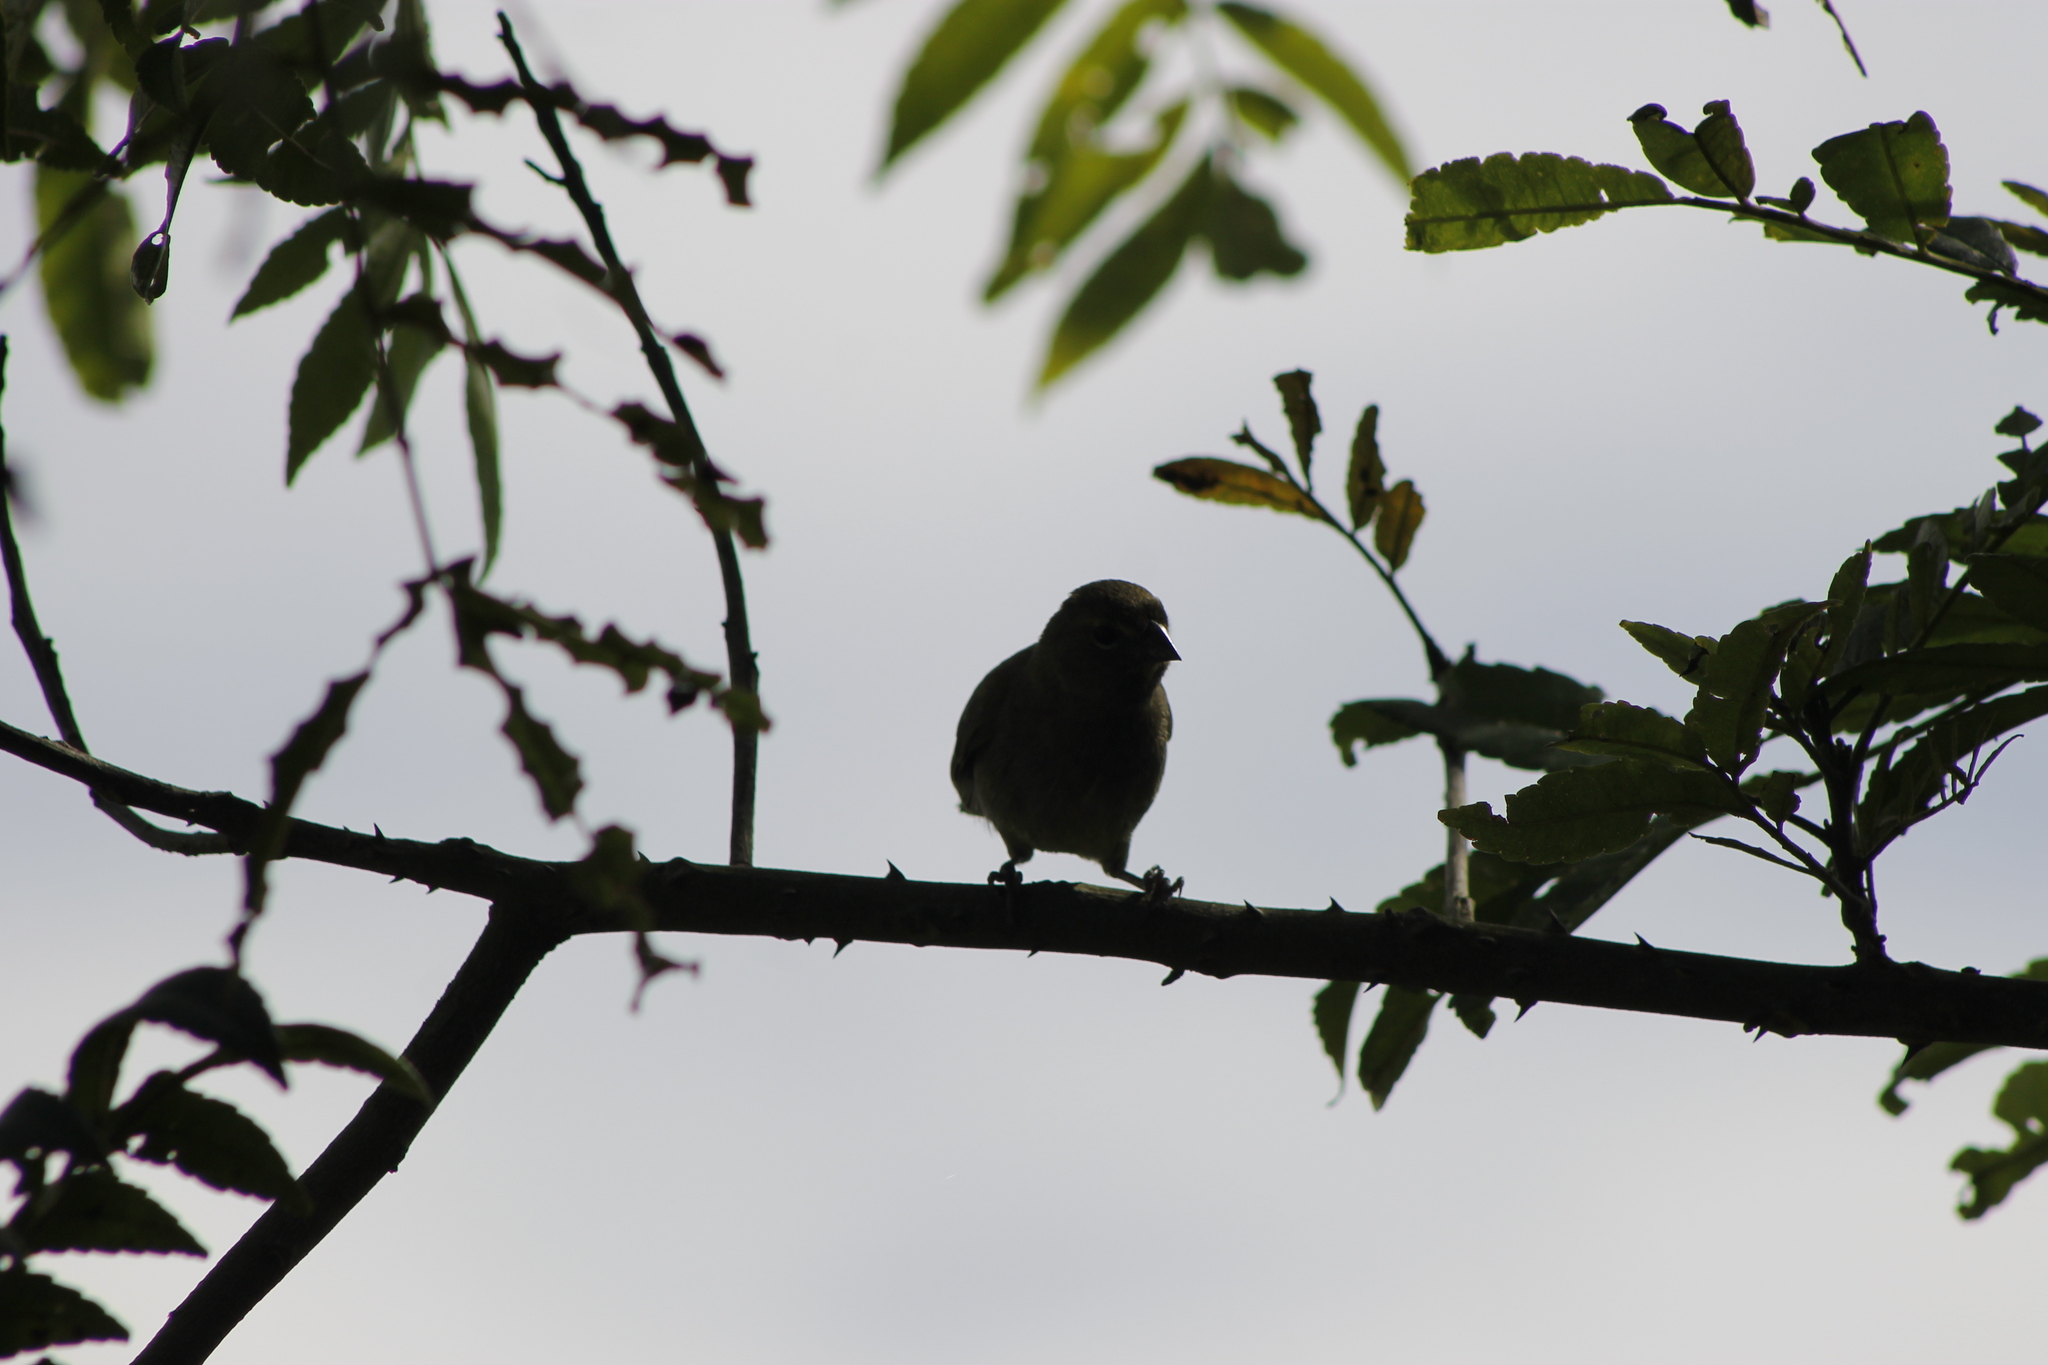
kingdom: Animalia
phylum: Chordata
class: Aves
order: Passeriformes
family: Thraupidae
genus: Tiaris
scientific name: Tiaris olivaceus
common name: Yellow-faced grassquit
